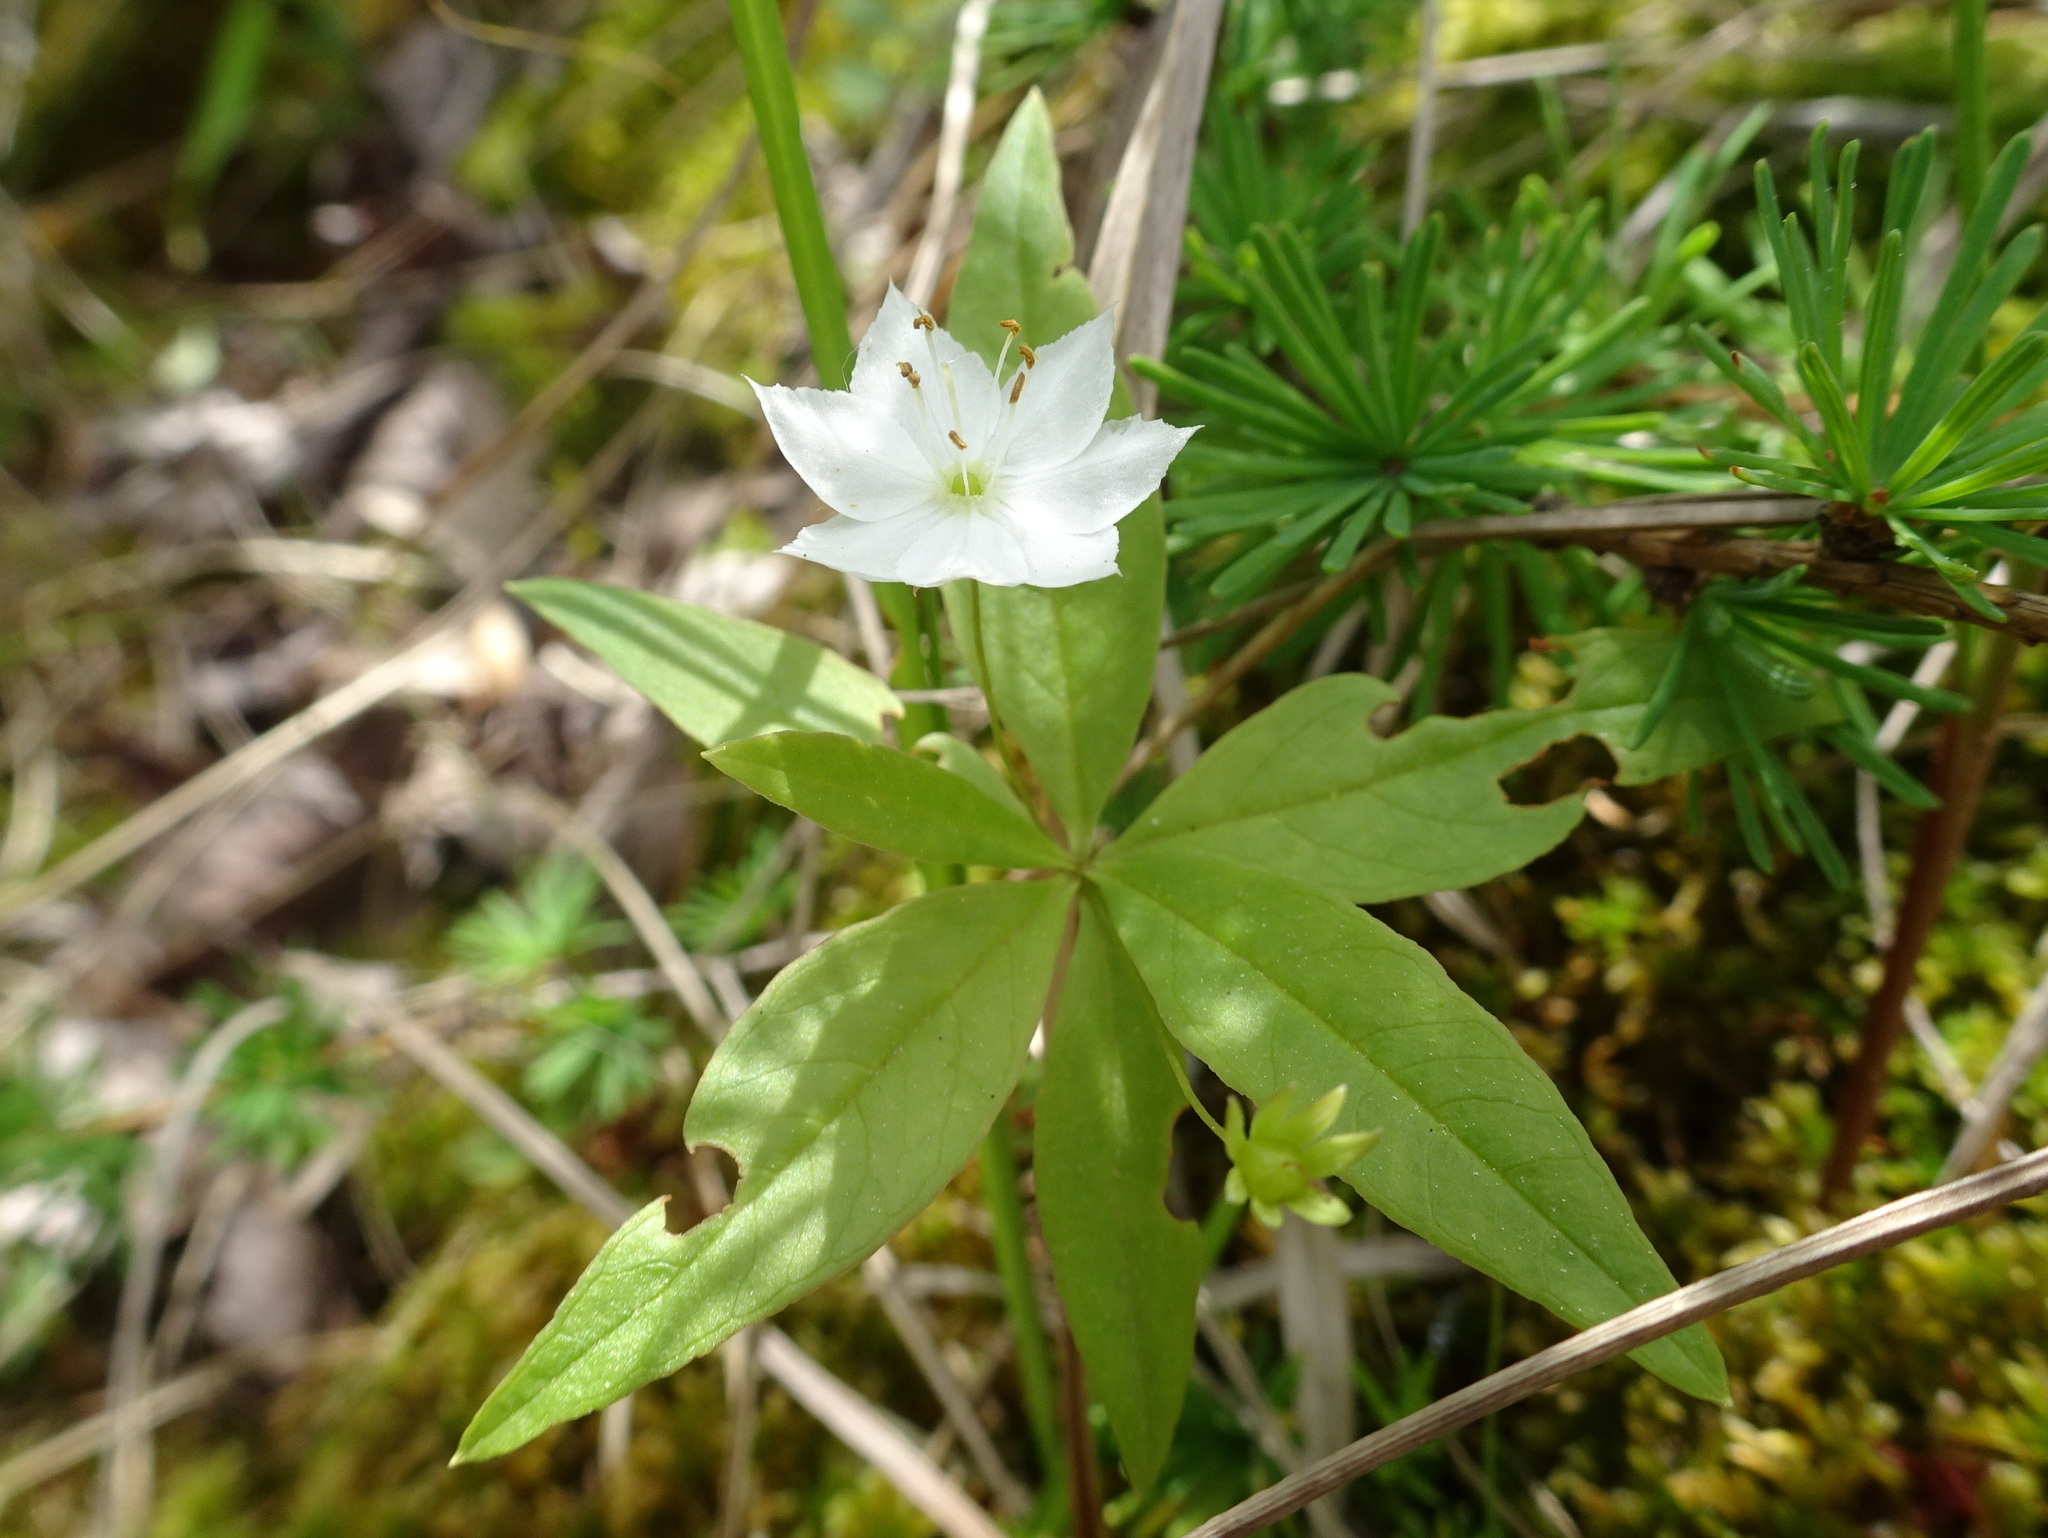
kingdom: Plantae
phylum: Tracheophyta
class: Magnoliopsida
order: Ericales
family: Primulaceae
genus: Lysimachia
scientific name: Lysimachia borealis
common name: American starflower
